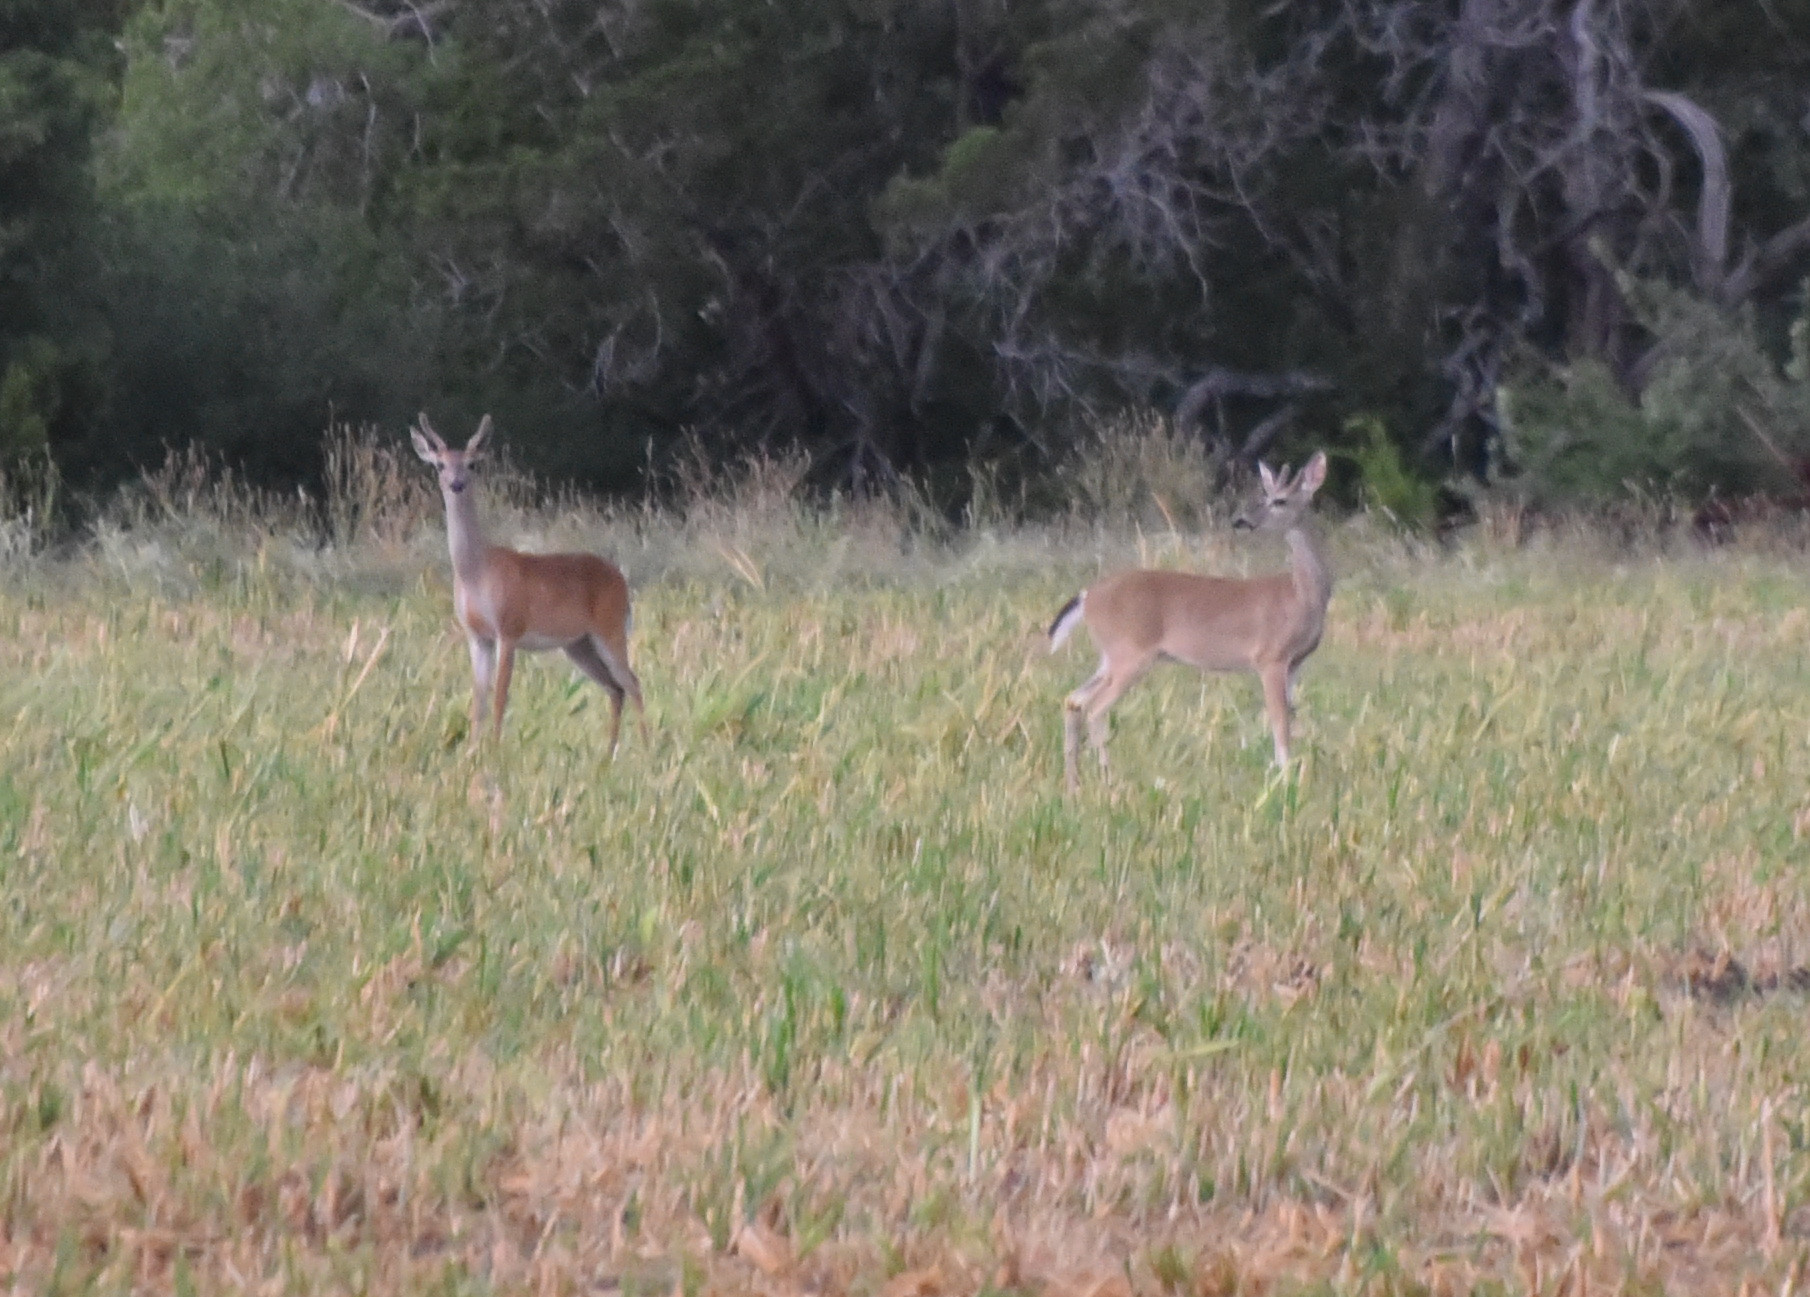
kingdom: Animalia
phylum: Chordata
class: Mammalia
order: Artiodactyla
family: Cervidae
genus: Odocoileus
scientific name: Odocoileus virginianus
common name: White-tailed deer
